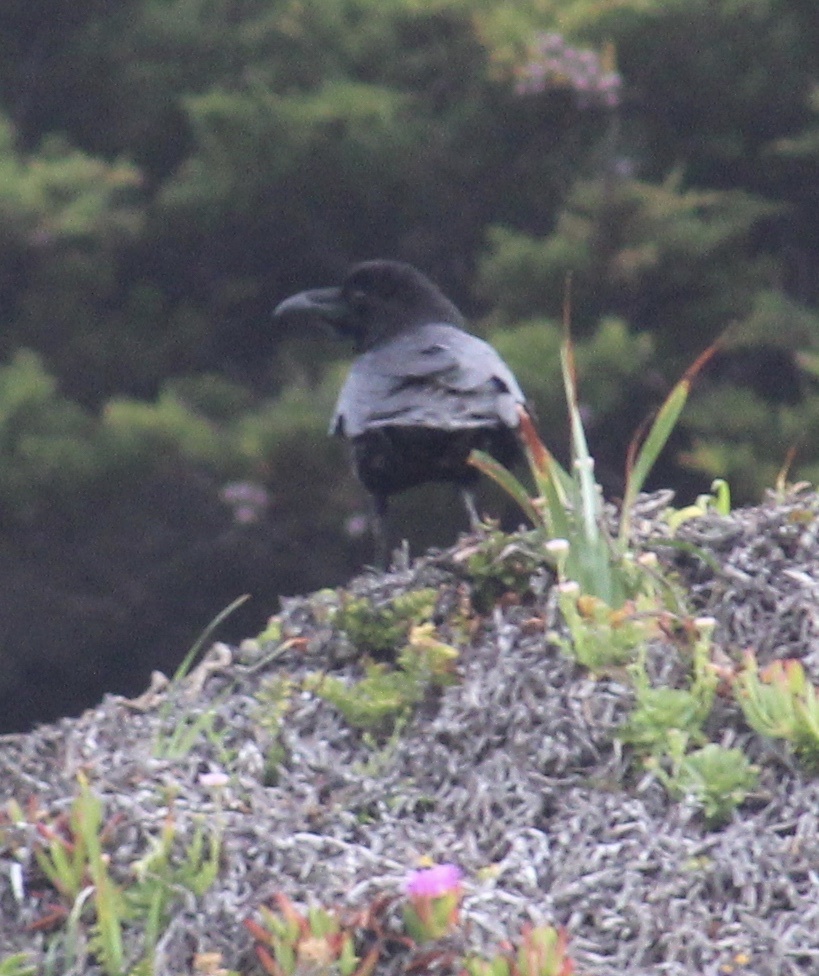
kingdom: Animalia
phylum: Chordata
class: Aves
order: Passeriformes
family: Corvidae
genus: Corvus
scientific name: Corvus brachyrhynchos
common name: American crow
